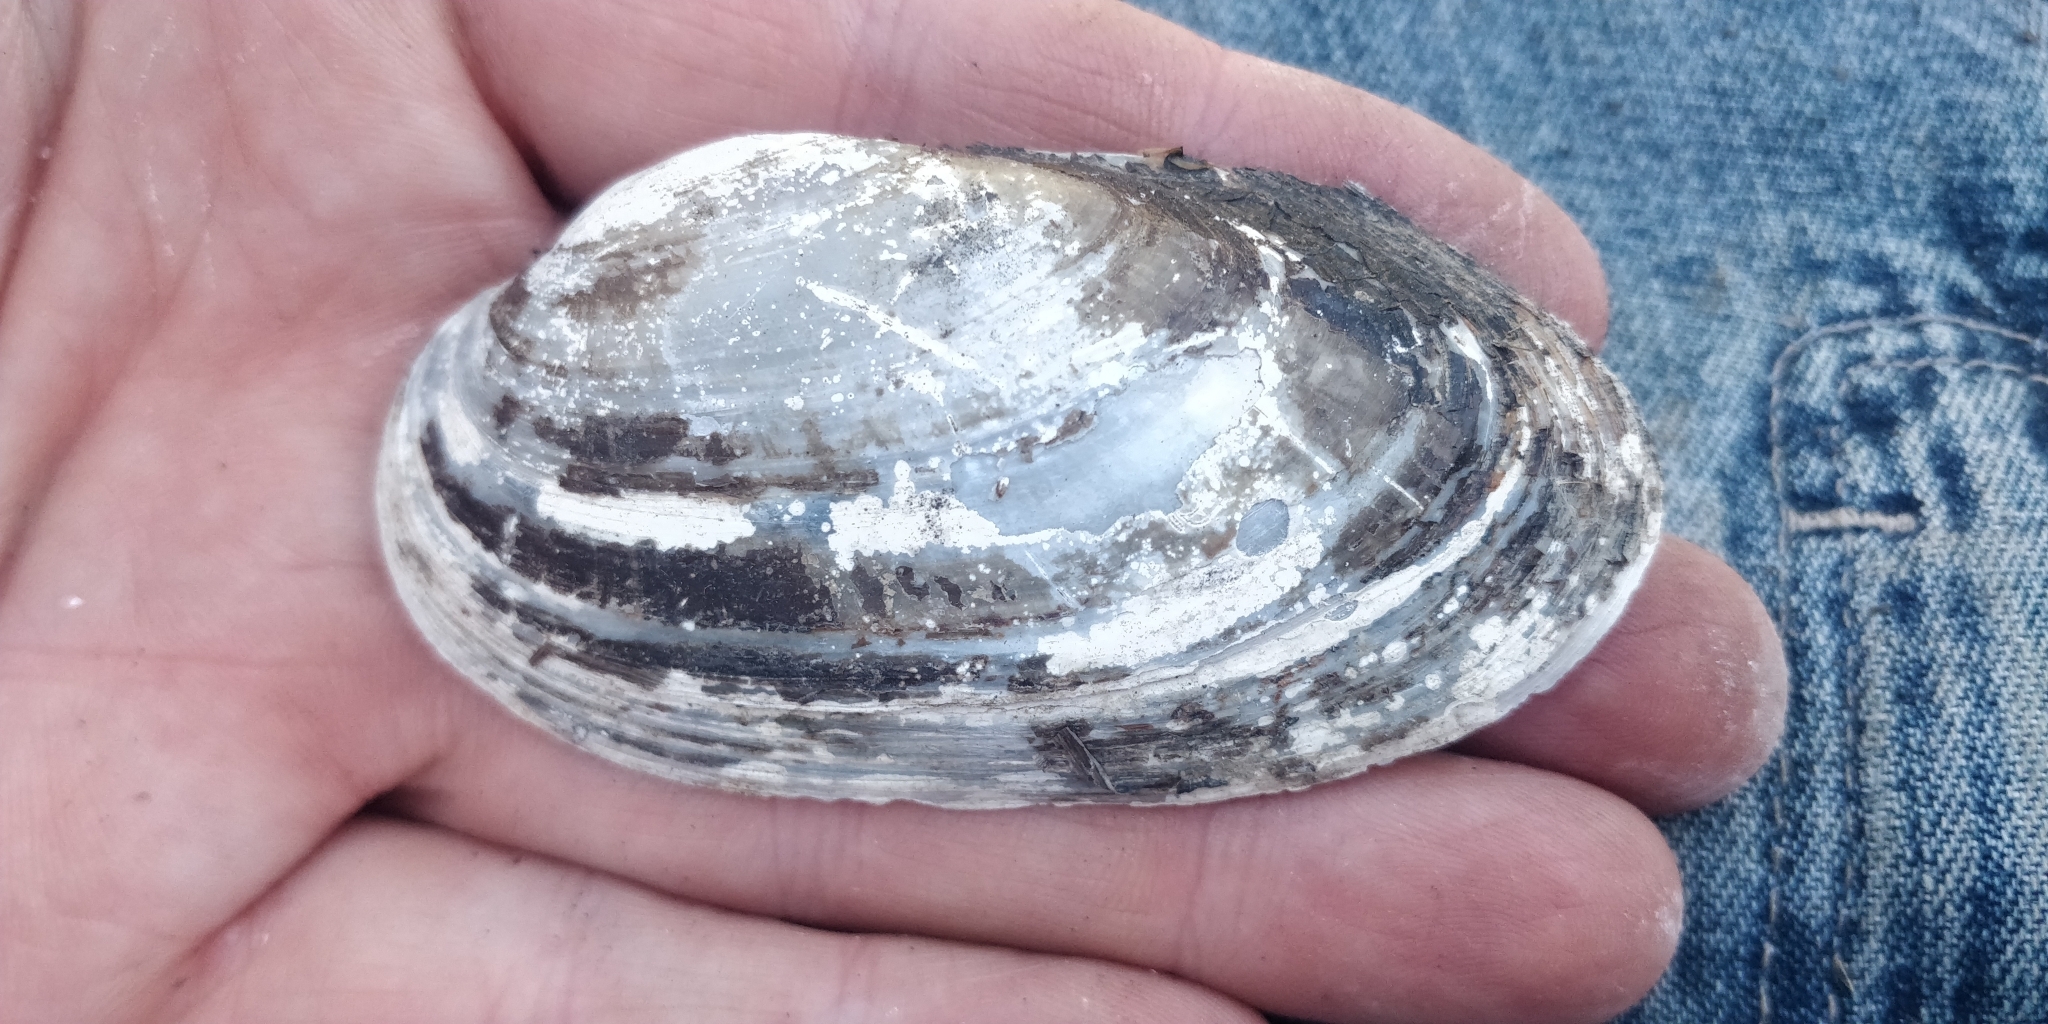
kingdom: Animalia
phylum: Mollusca
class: Bivalvia
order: Unionida
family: Unionidae
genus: Lampsilis
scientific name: Lampsilis siliquoidea
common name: Fatmucket
